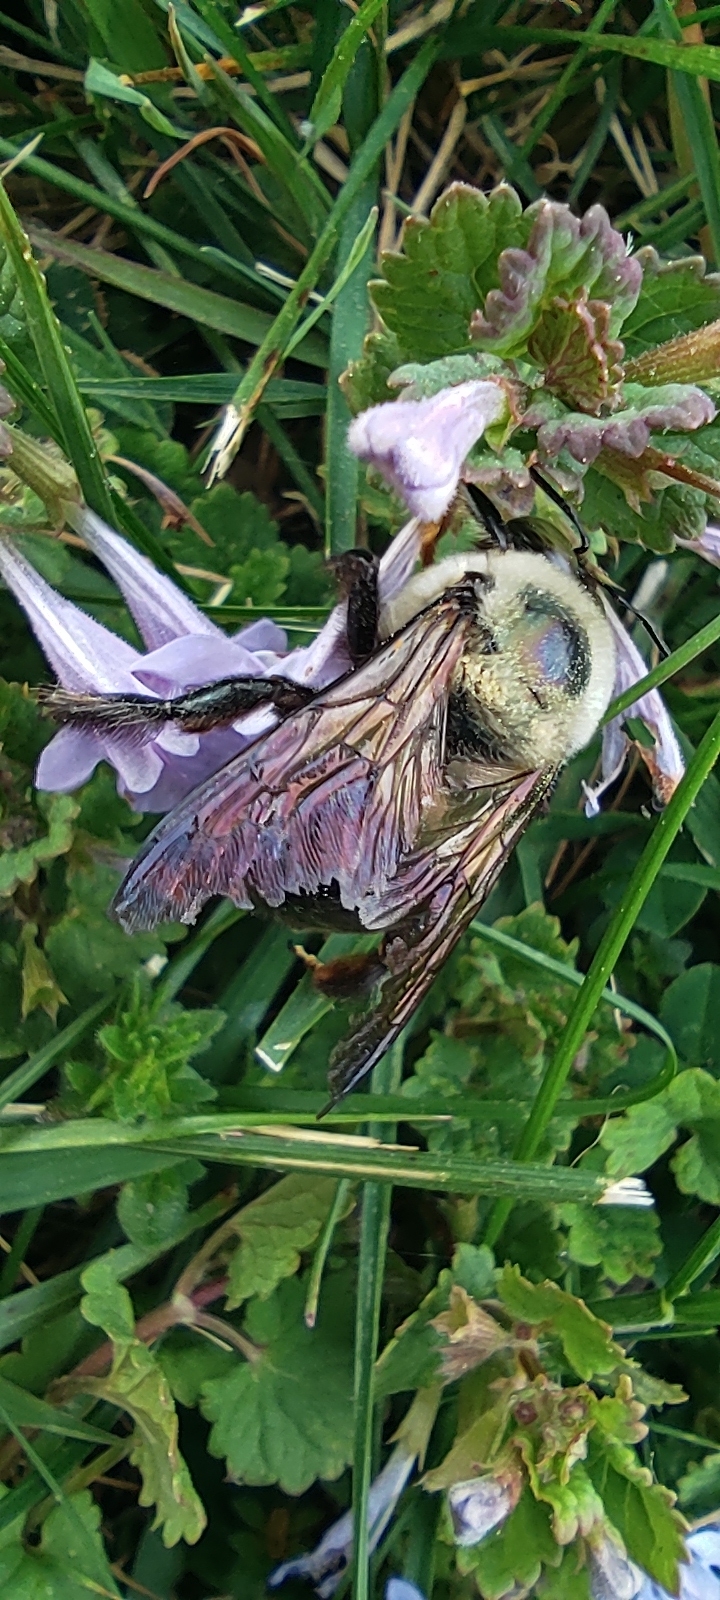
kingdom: Animalia
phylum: Arthropoda
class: Insecta
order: Hymenoptera
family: Apidae
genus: Xylocopa
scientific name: Xylocopa virginica
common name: Carpenter bee
